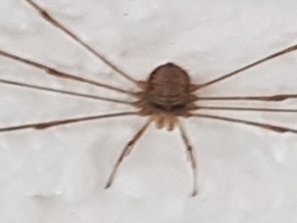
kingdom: Animalia
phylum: Arthropoda
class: Arachnida
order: Opiliones
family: Phalangiidae
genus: Dicranopalpus
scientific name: Dicranopalpus ramosus
